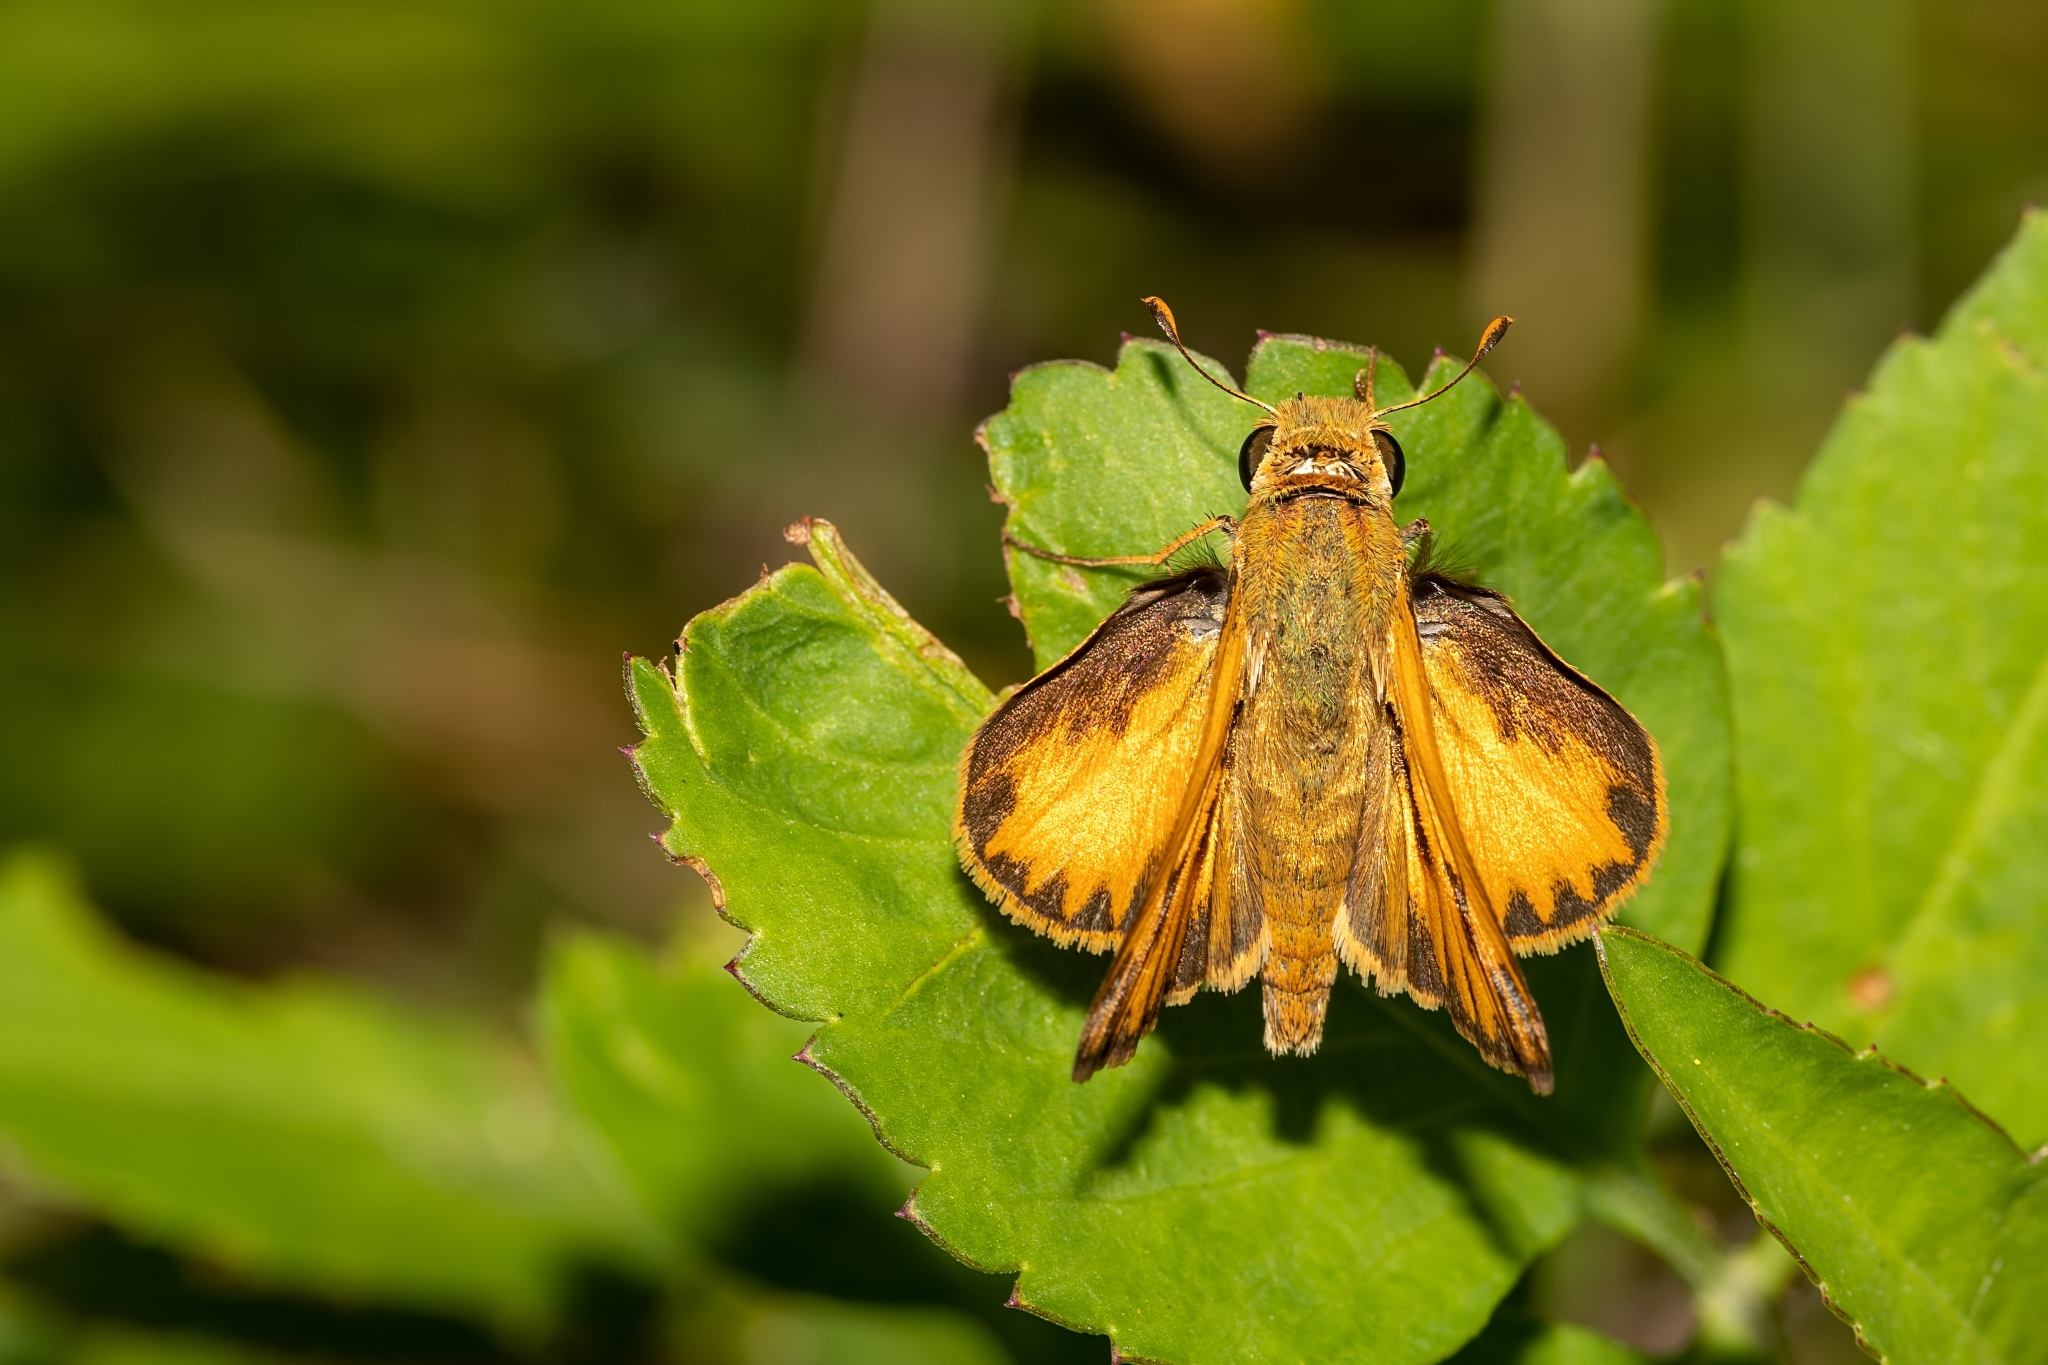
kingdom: Animalia
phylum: Arthropoda
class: Insecta
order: Lepidoptera
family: Hesperiidae
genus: Hylephila
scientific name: Hylephila phyleus
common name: Fiery skipper
